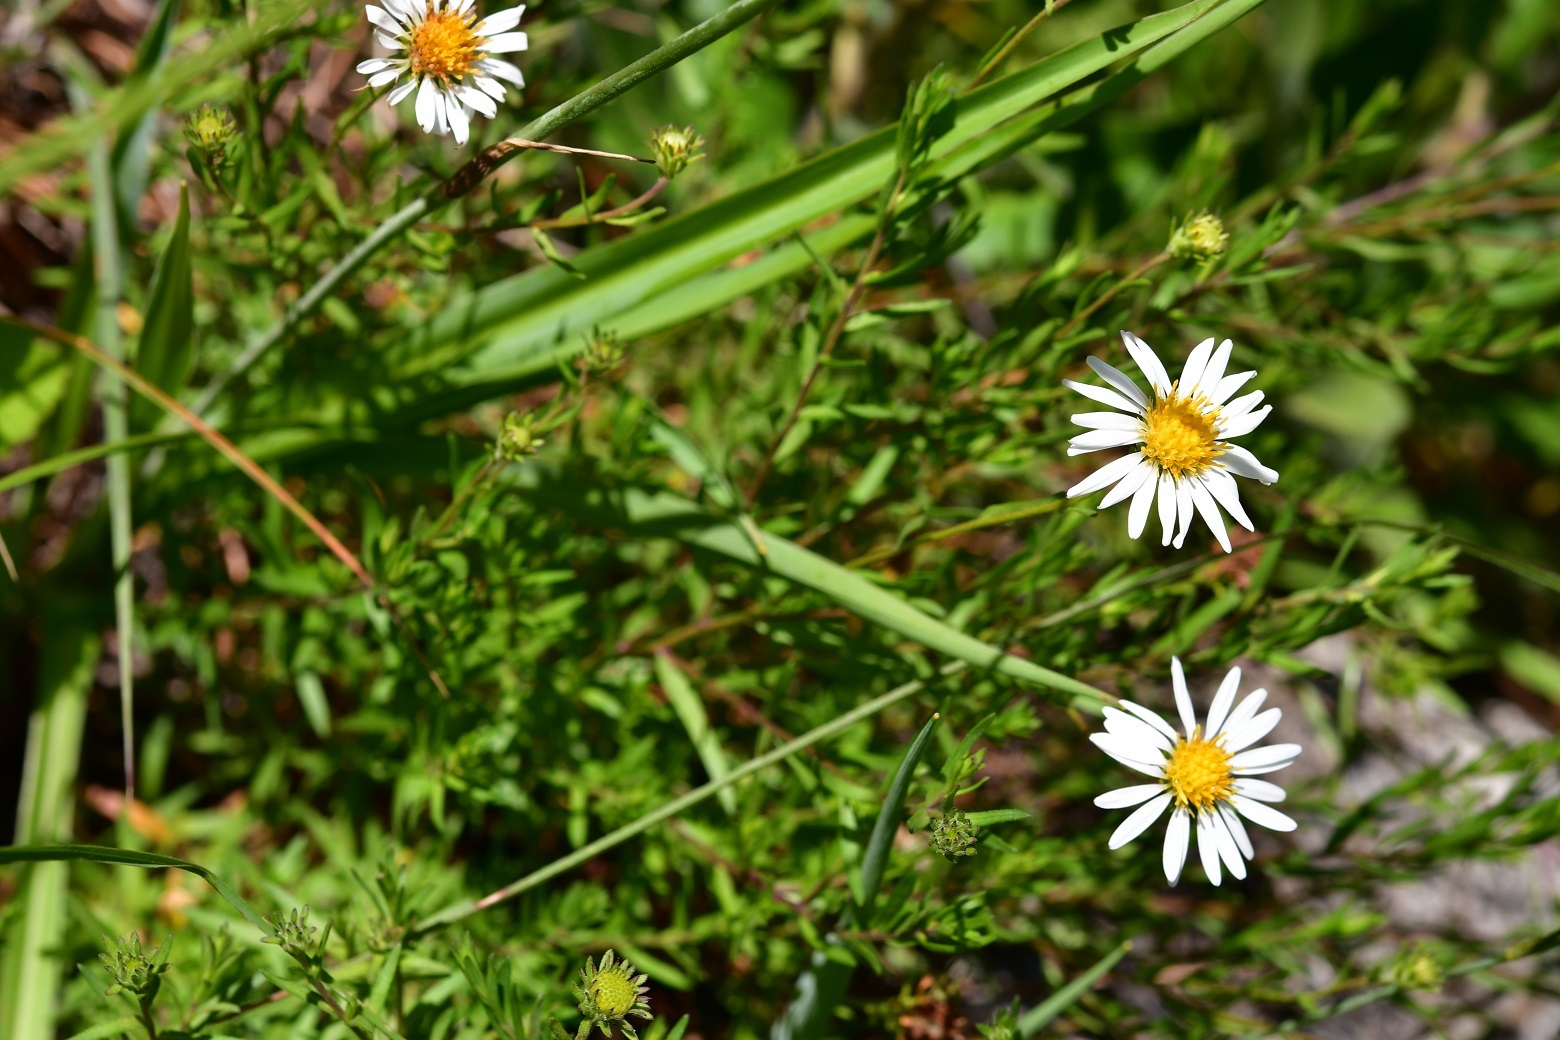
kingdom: Plantae
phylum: Tracheophyta
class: Magnoliopsida
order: Asterales
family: Asteraceae
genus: Symphyotrichum
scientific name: Symphyotrichum bullatum
